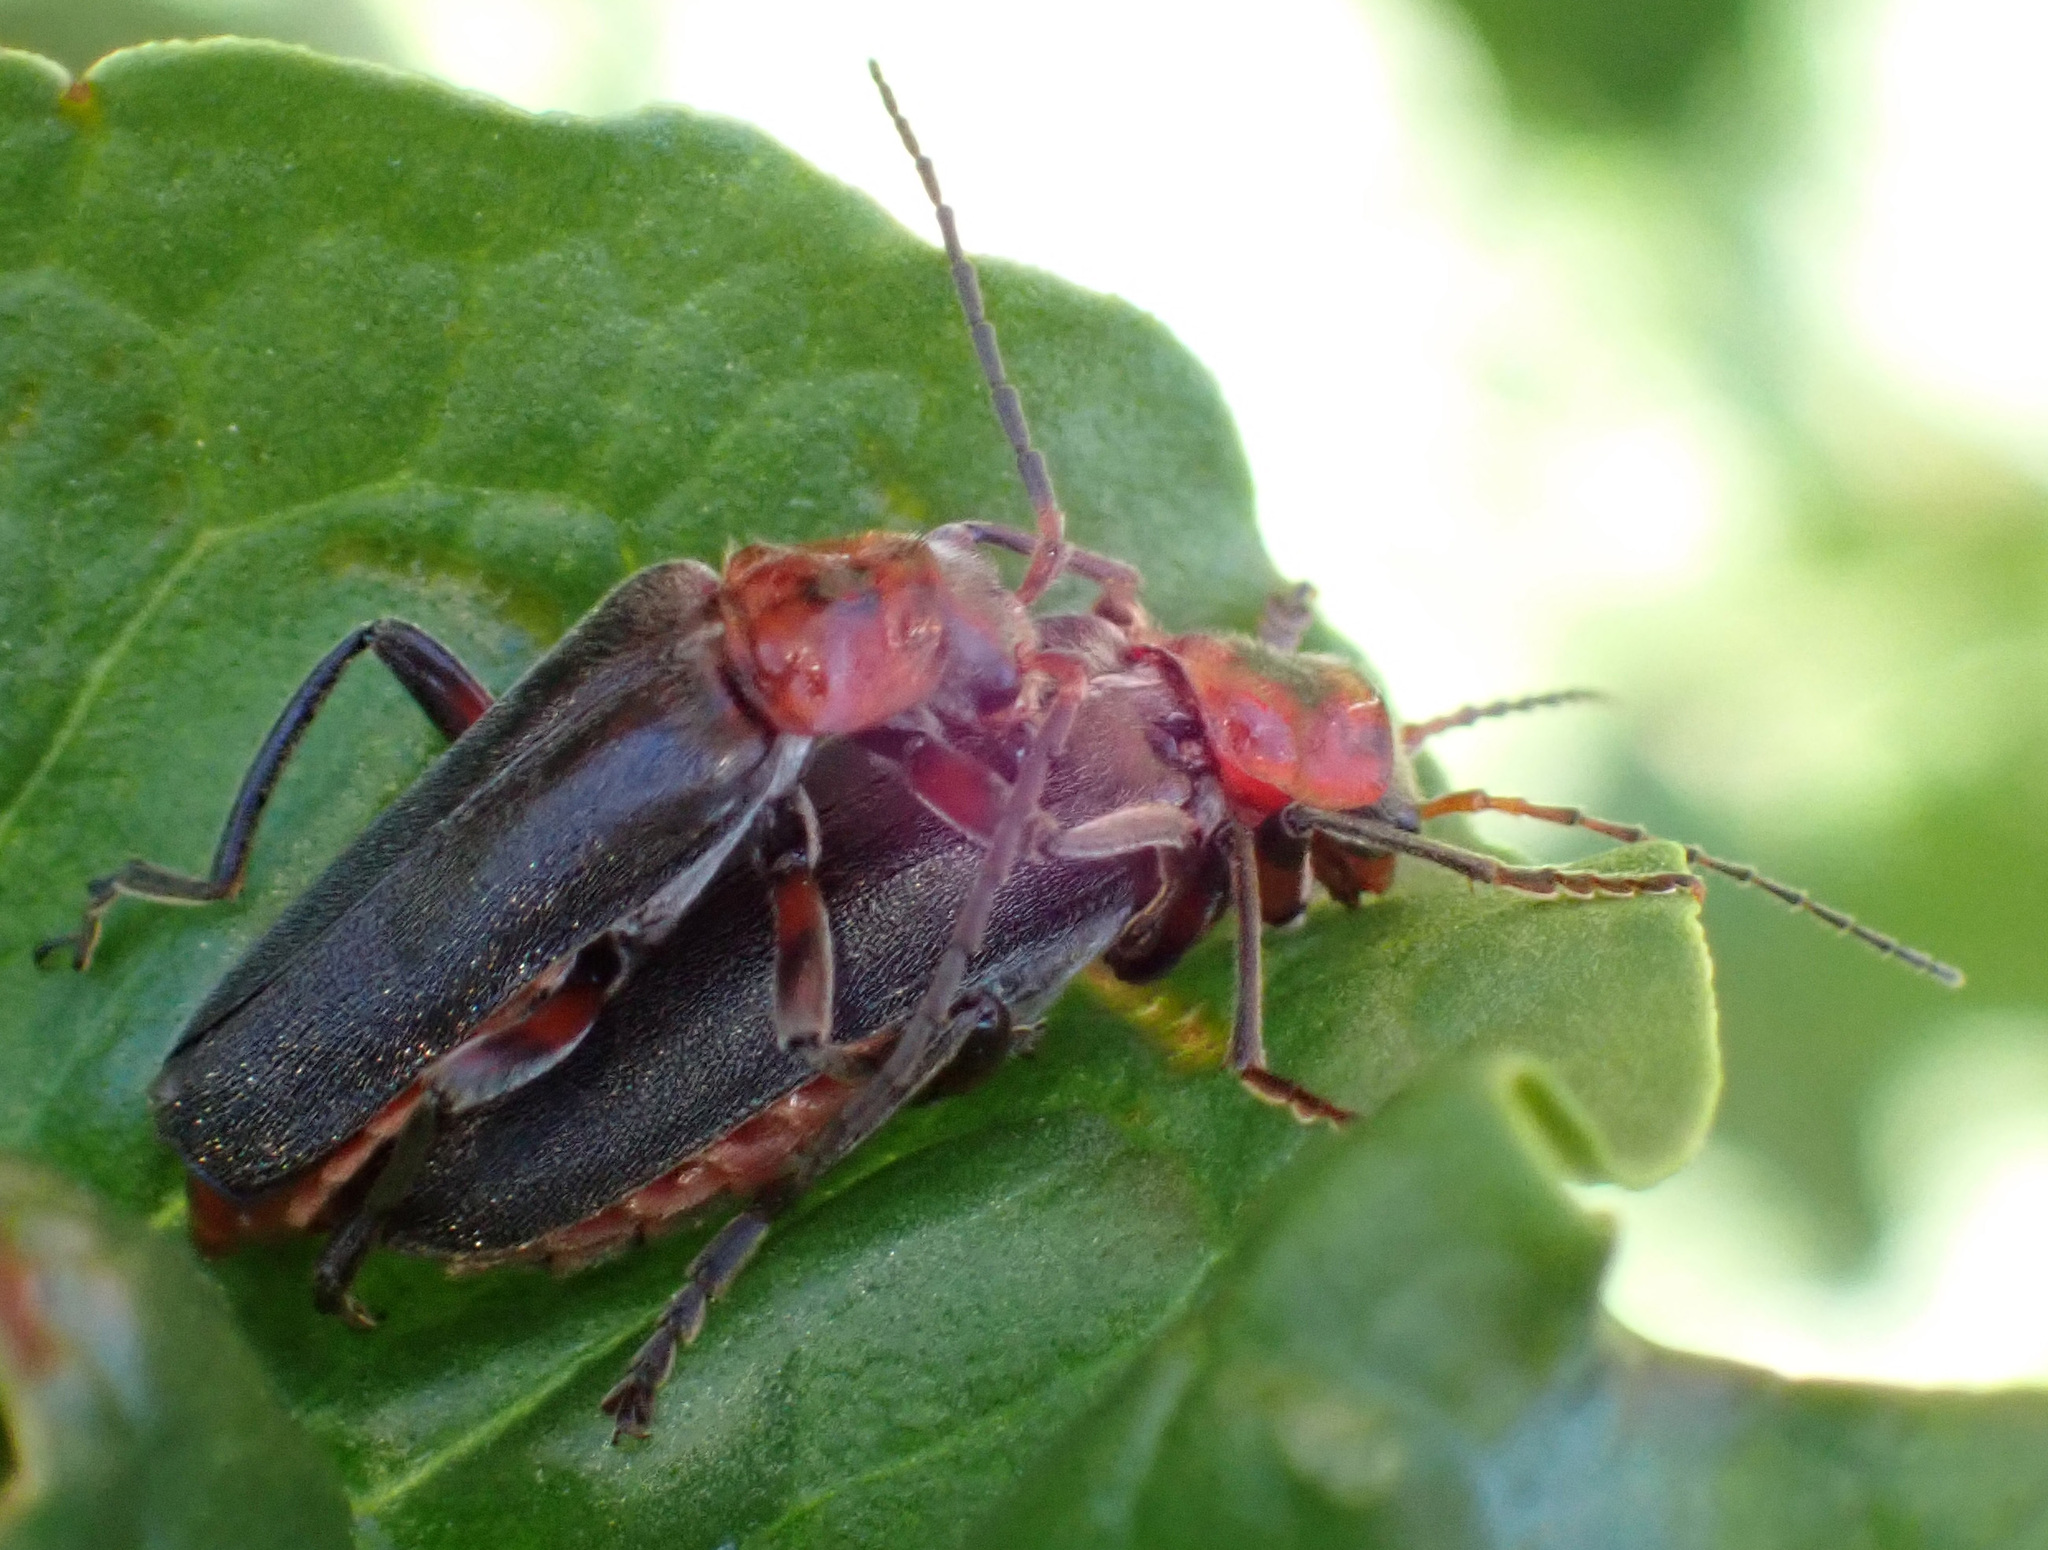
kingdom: Animalia
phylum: Arthropoda
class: Insecta
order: Coleoptera
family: Cantharidae
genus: Cantharis
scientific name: Cantharis rustica
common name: Soldier beetle
